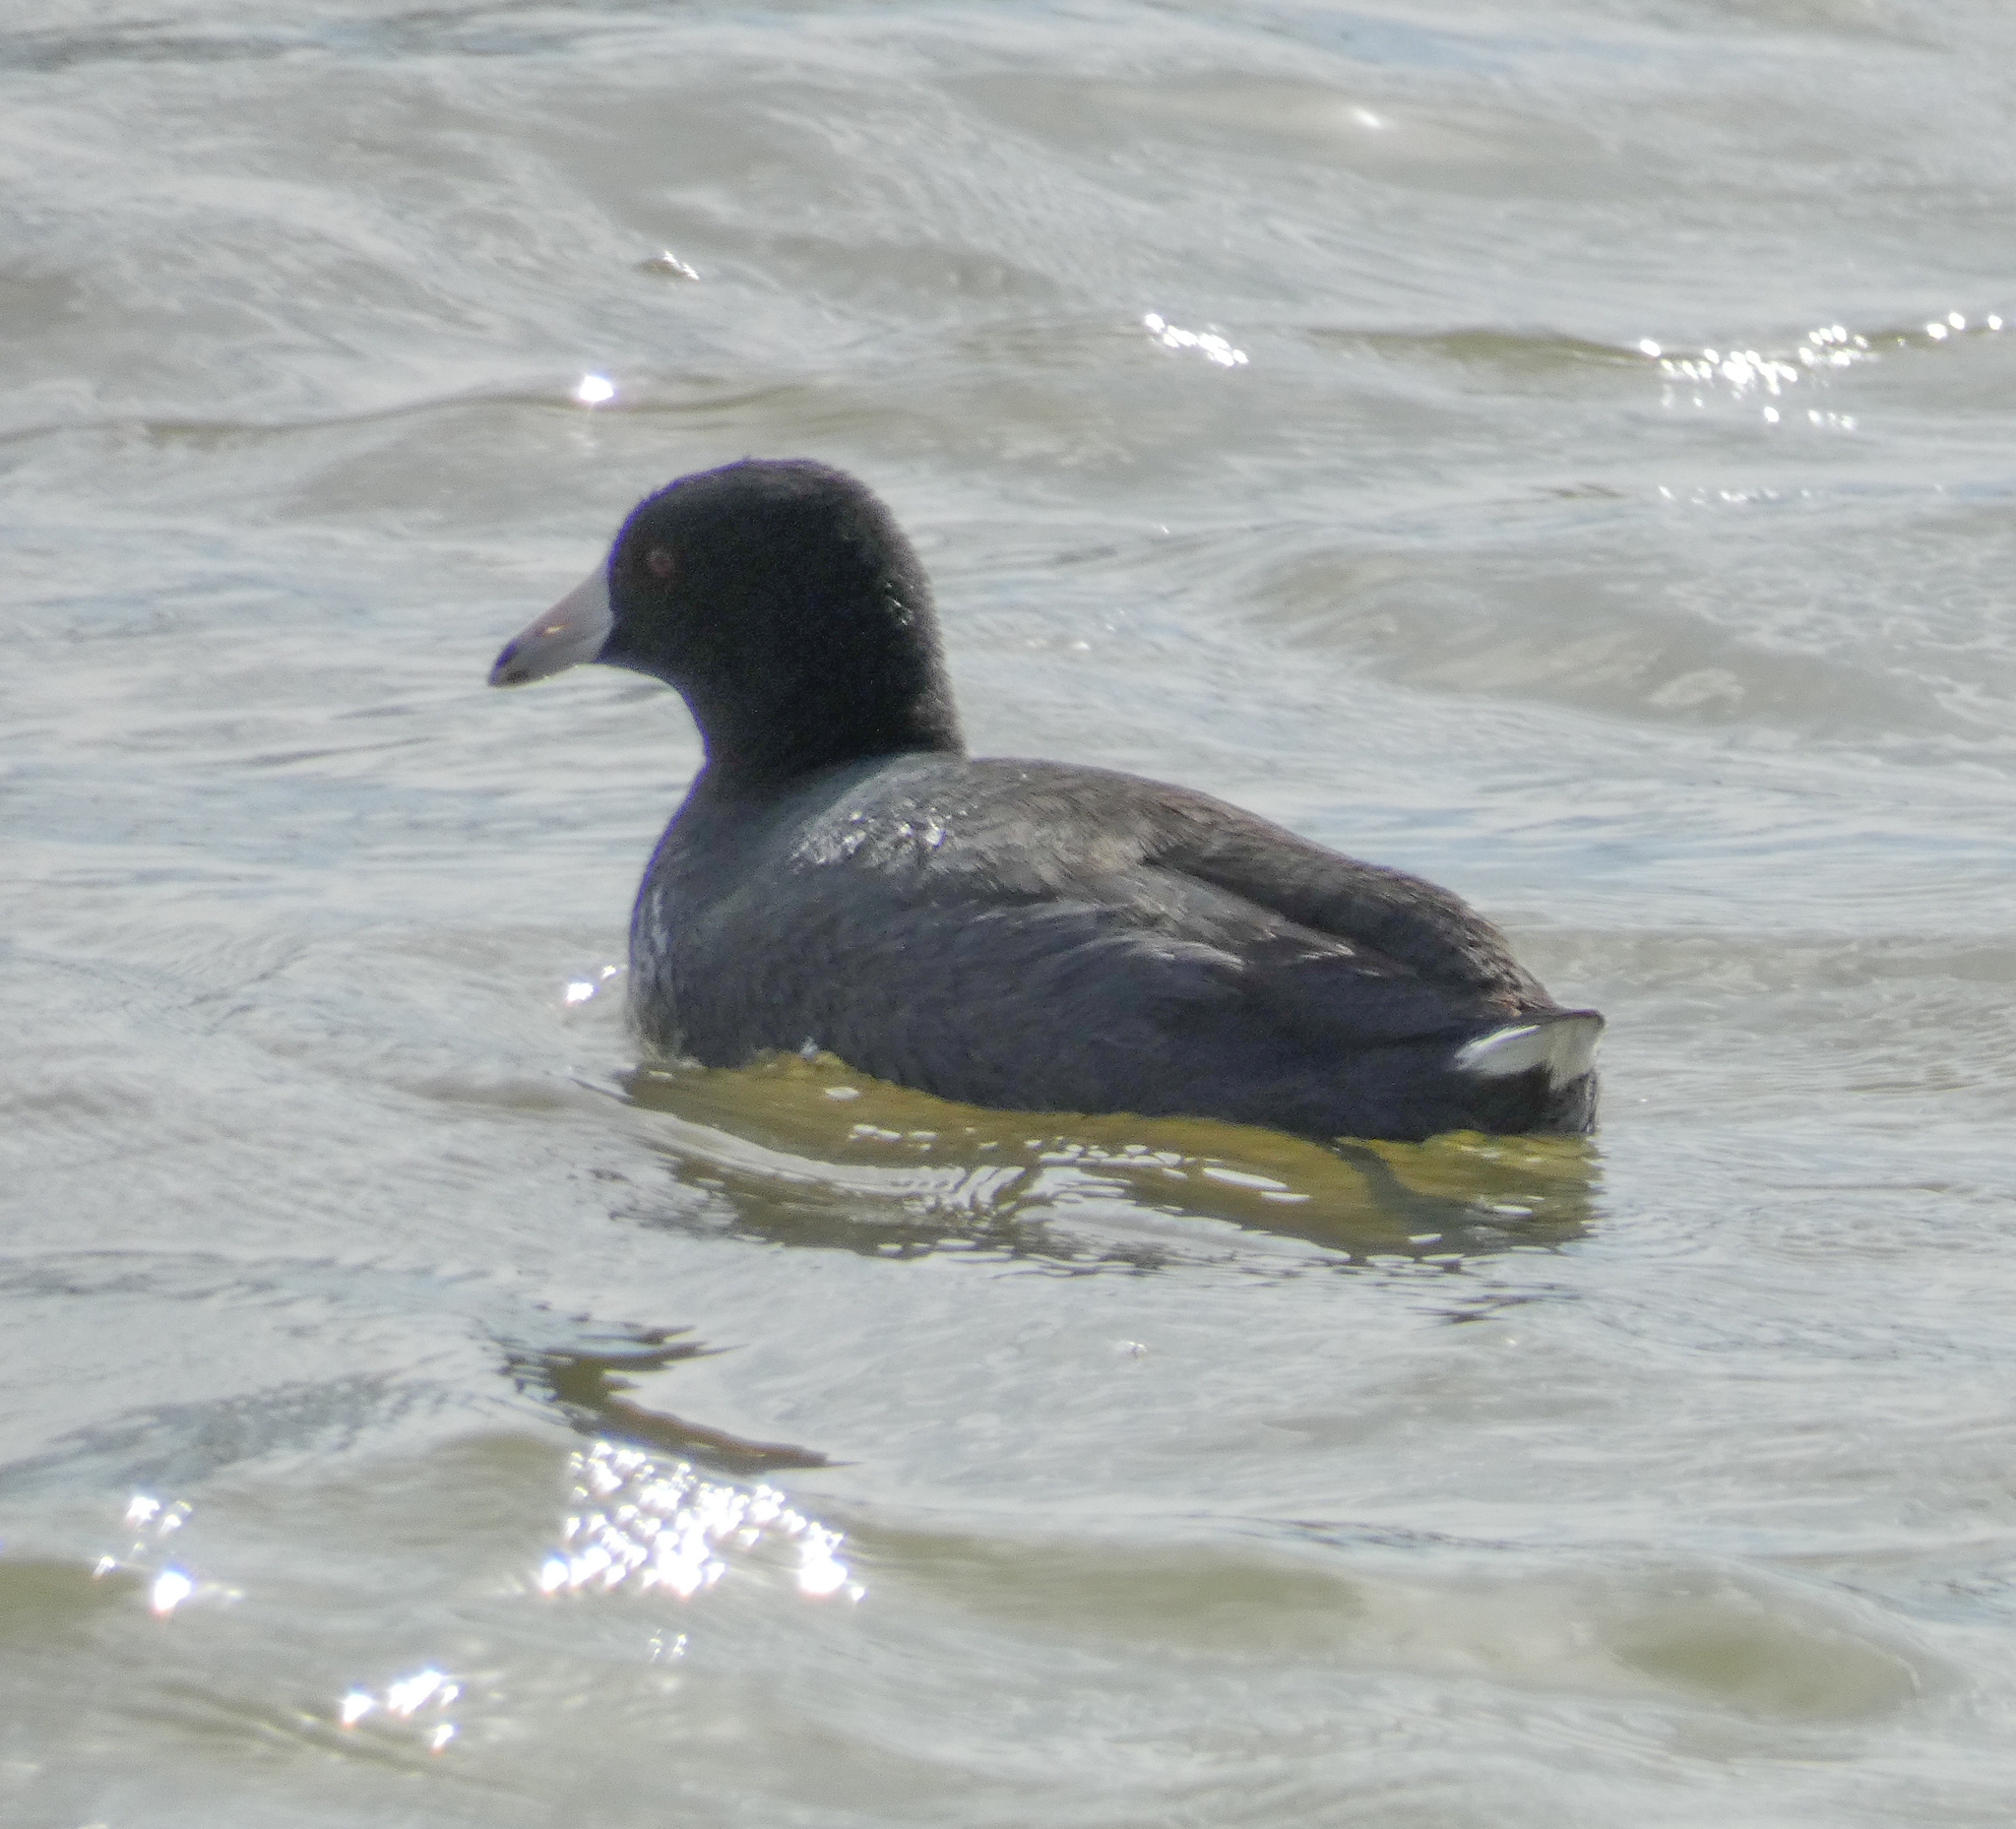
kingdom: Animalia
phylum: Chordata
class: Aves
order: Gruiformes
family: Rallidae
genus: Fulica
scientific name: Fulica americana
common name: American coot
